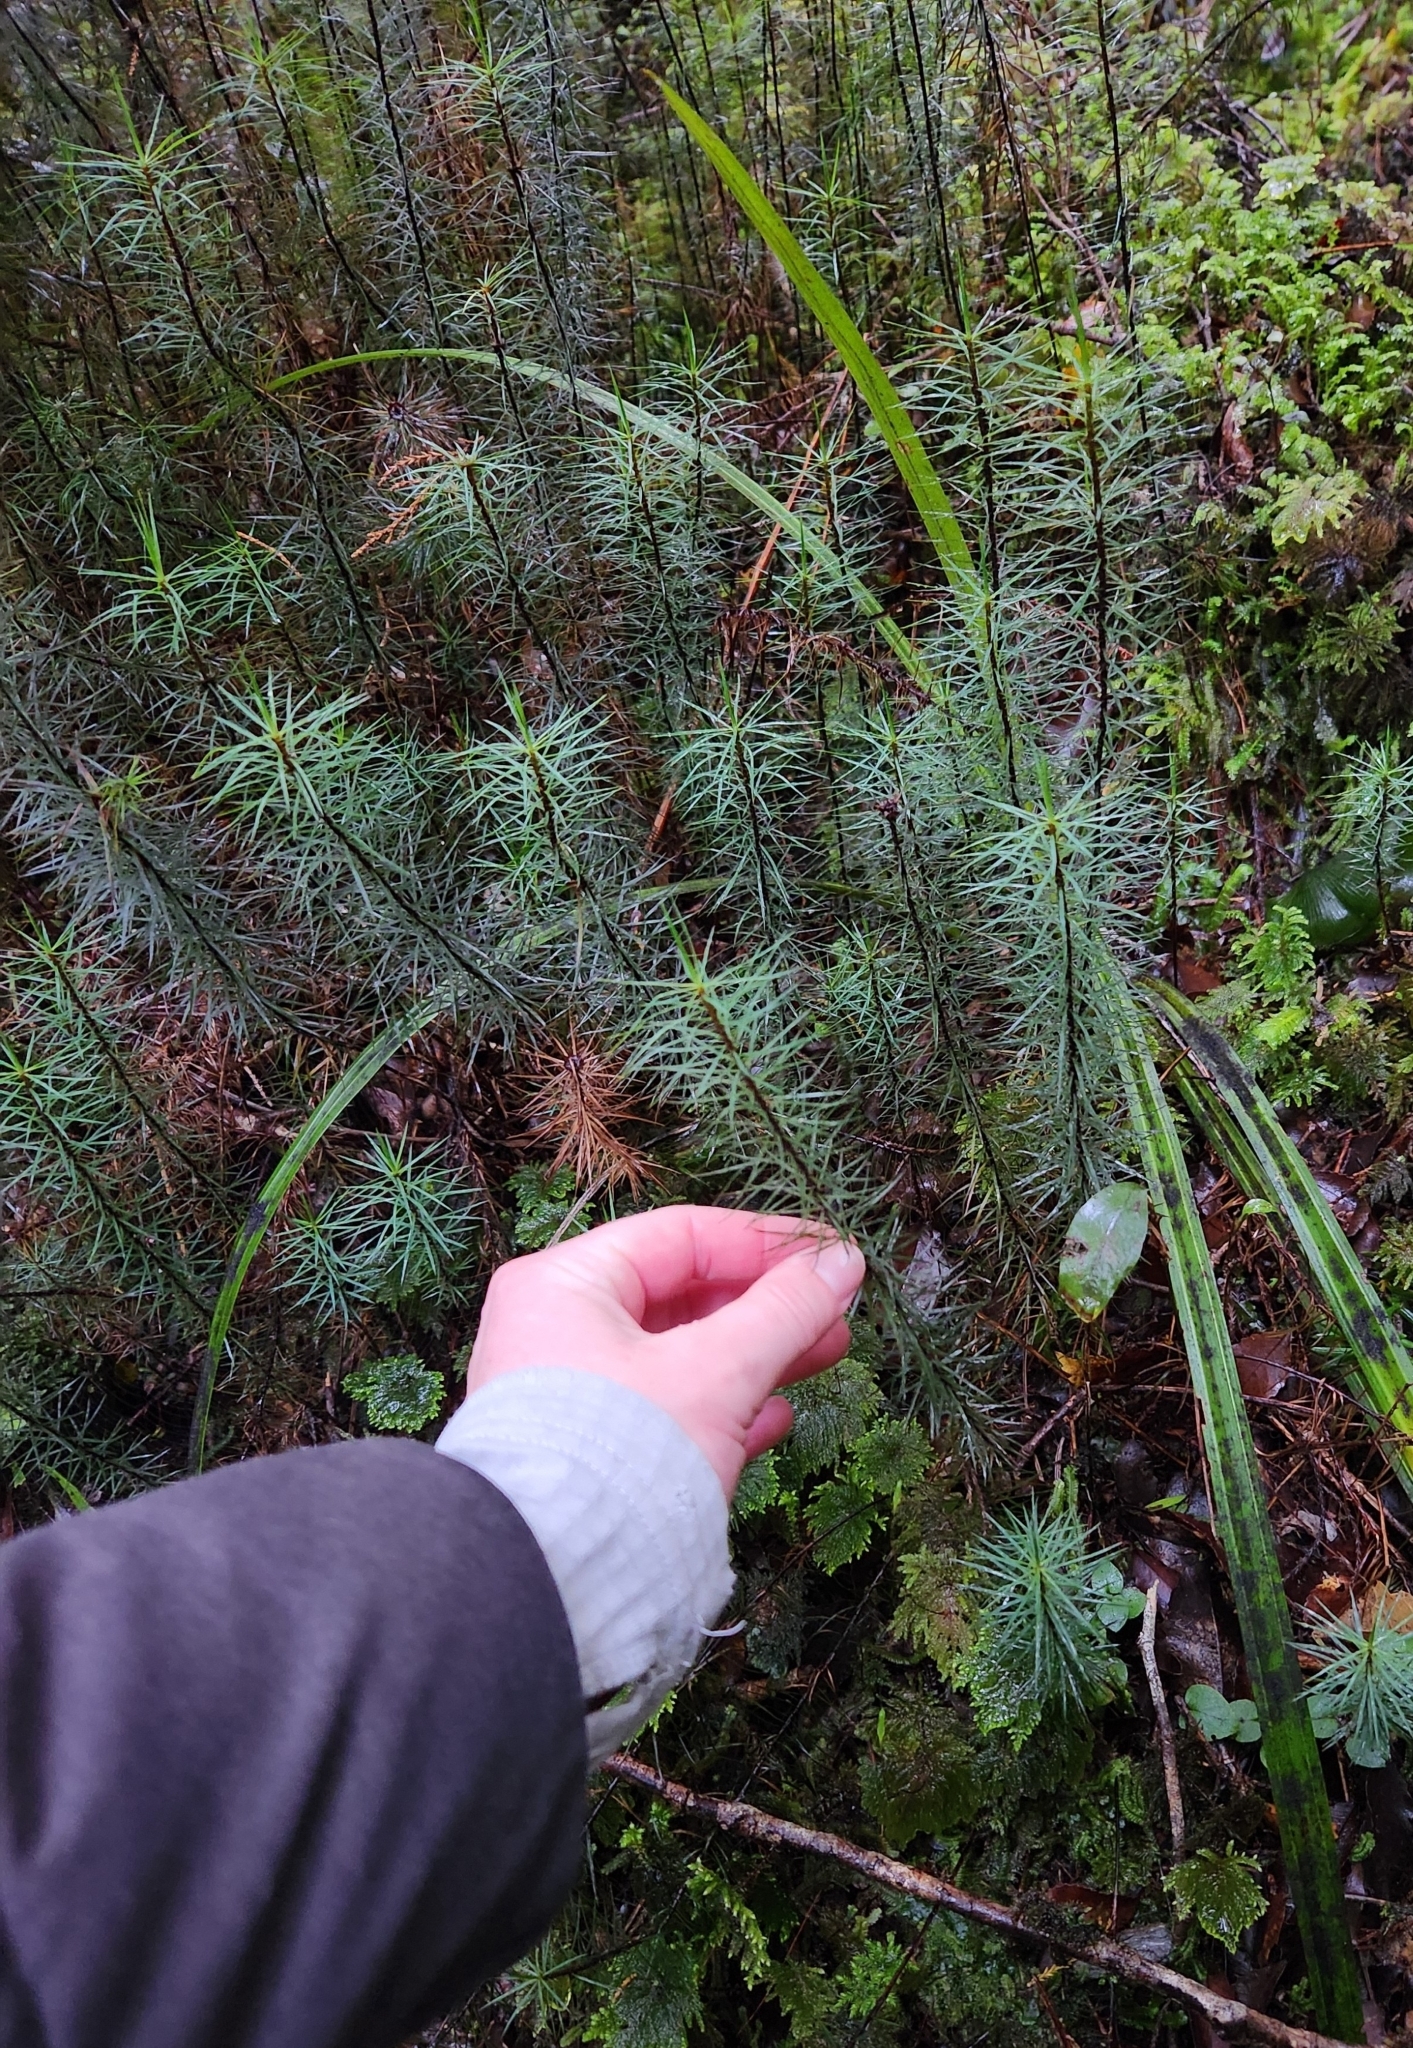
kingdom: Plantae
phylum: Bryophyta
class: Polytrichopsida
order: Polytrichales
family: Polytrichaceae
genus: Dawsonia
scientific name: Dawsonia superba
